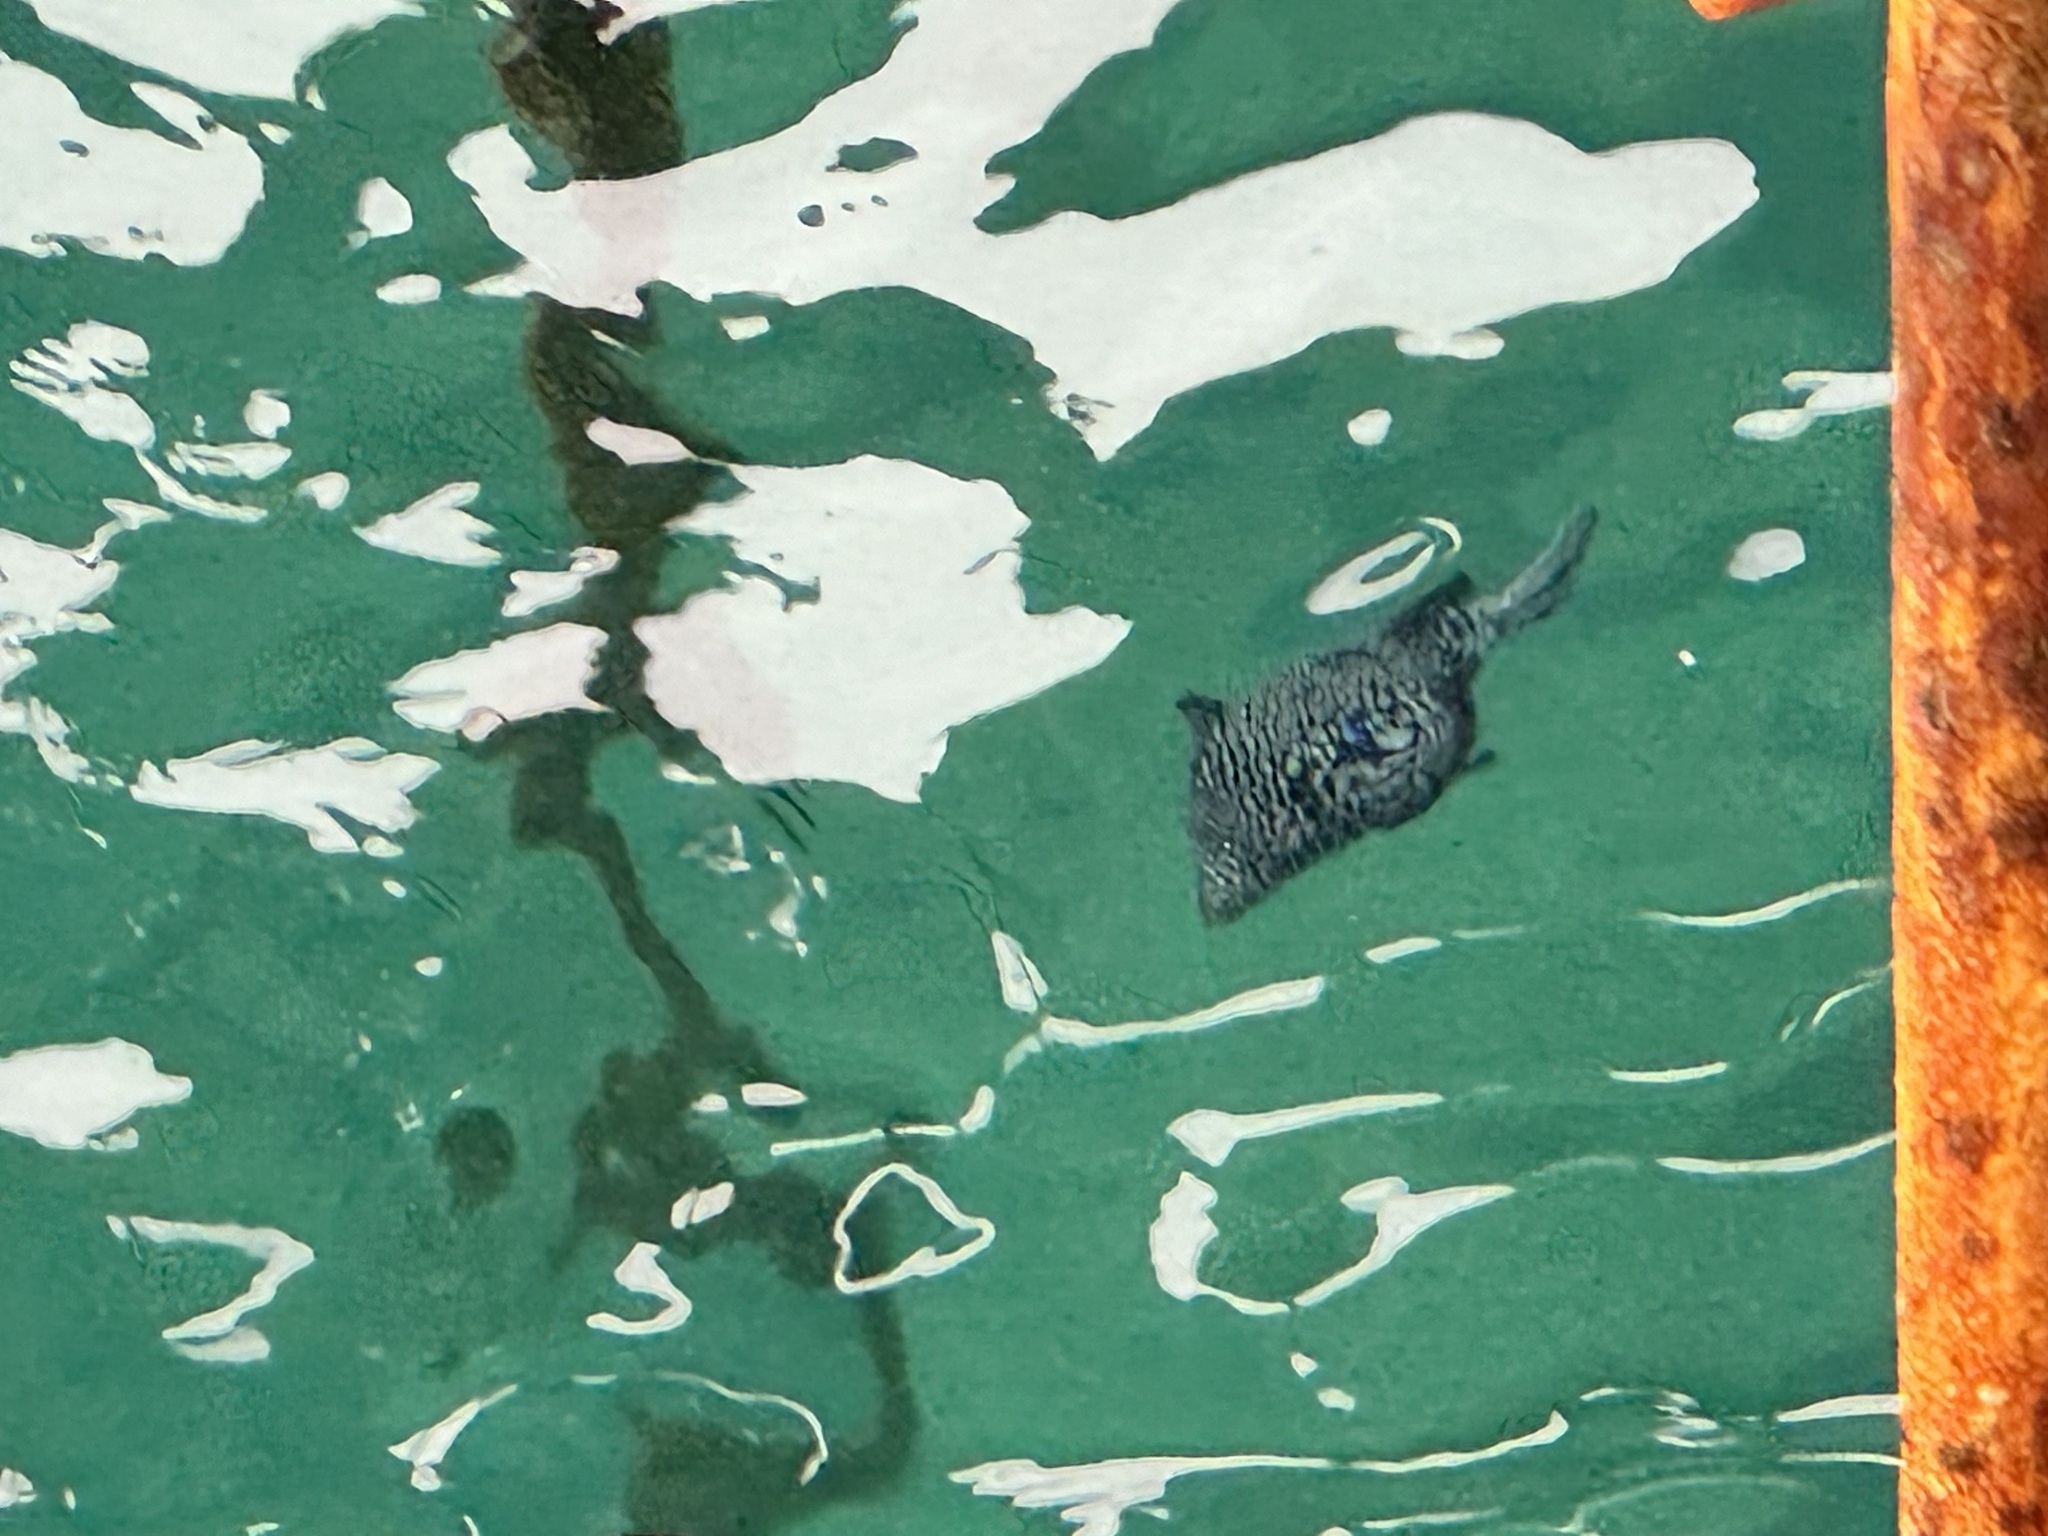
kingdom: Animalia
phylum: Chordata
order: Tetraodontiformes
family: Tetraodontidae
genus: Arothron
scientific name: Arothron meleagris
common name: Guinea-fowl pufferfish
